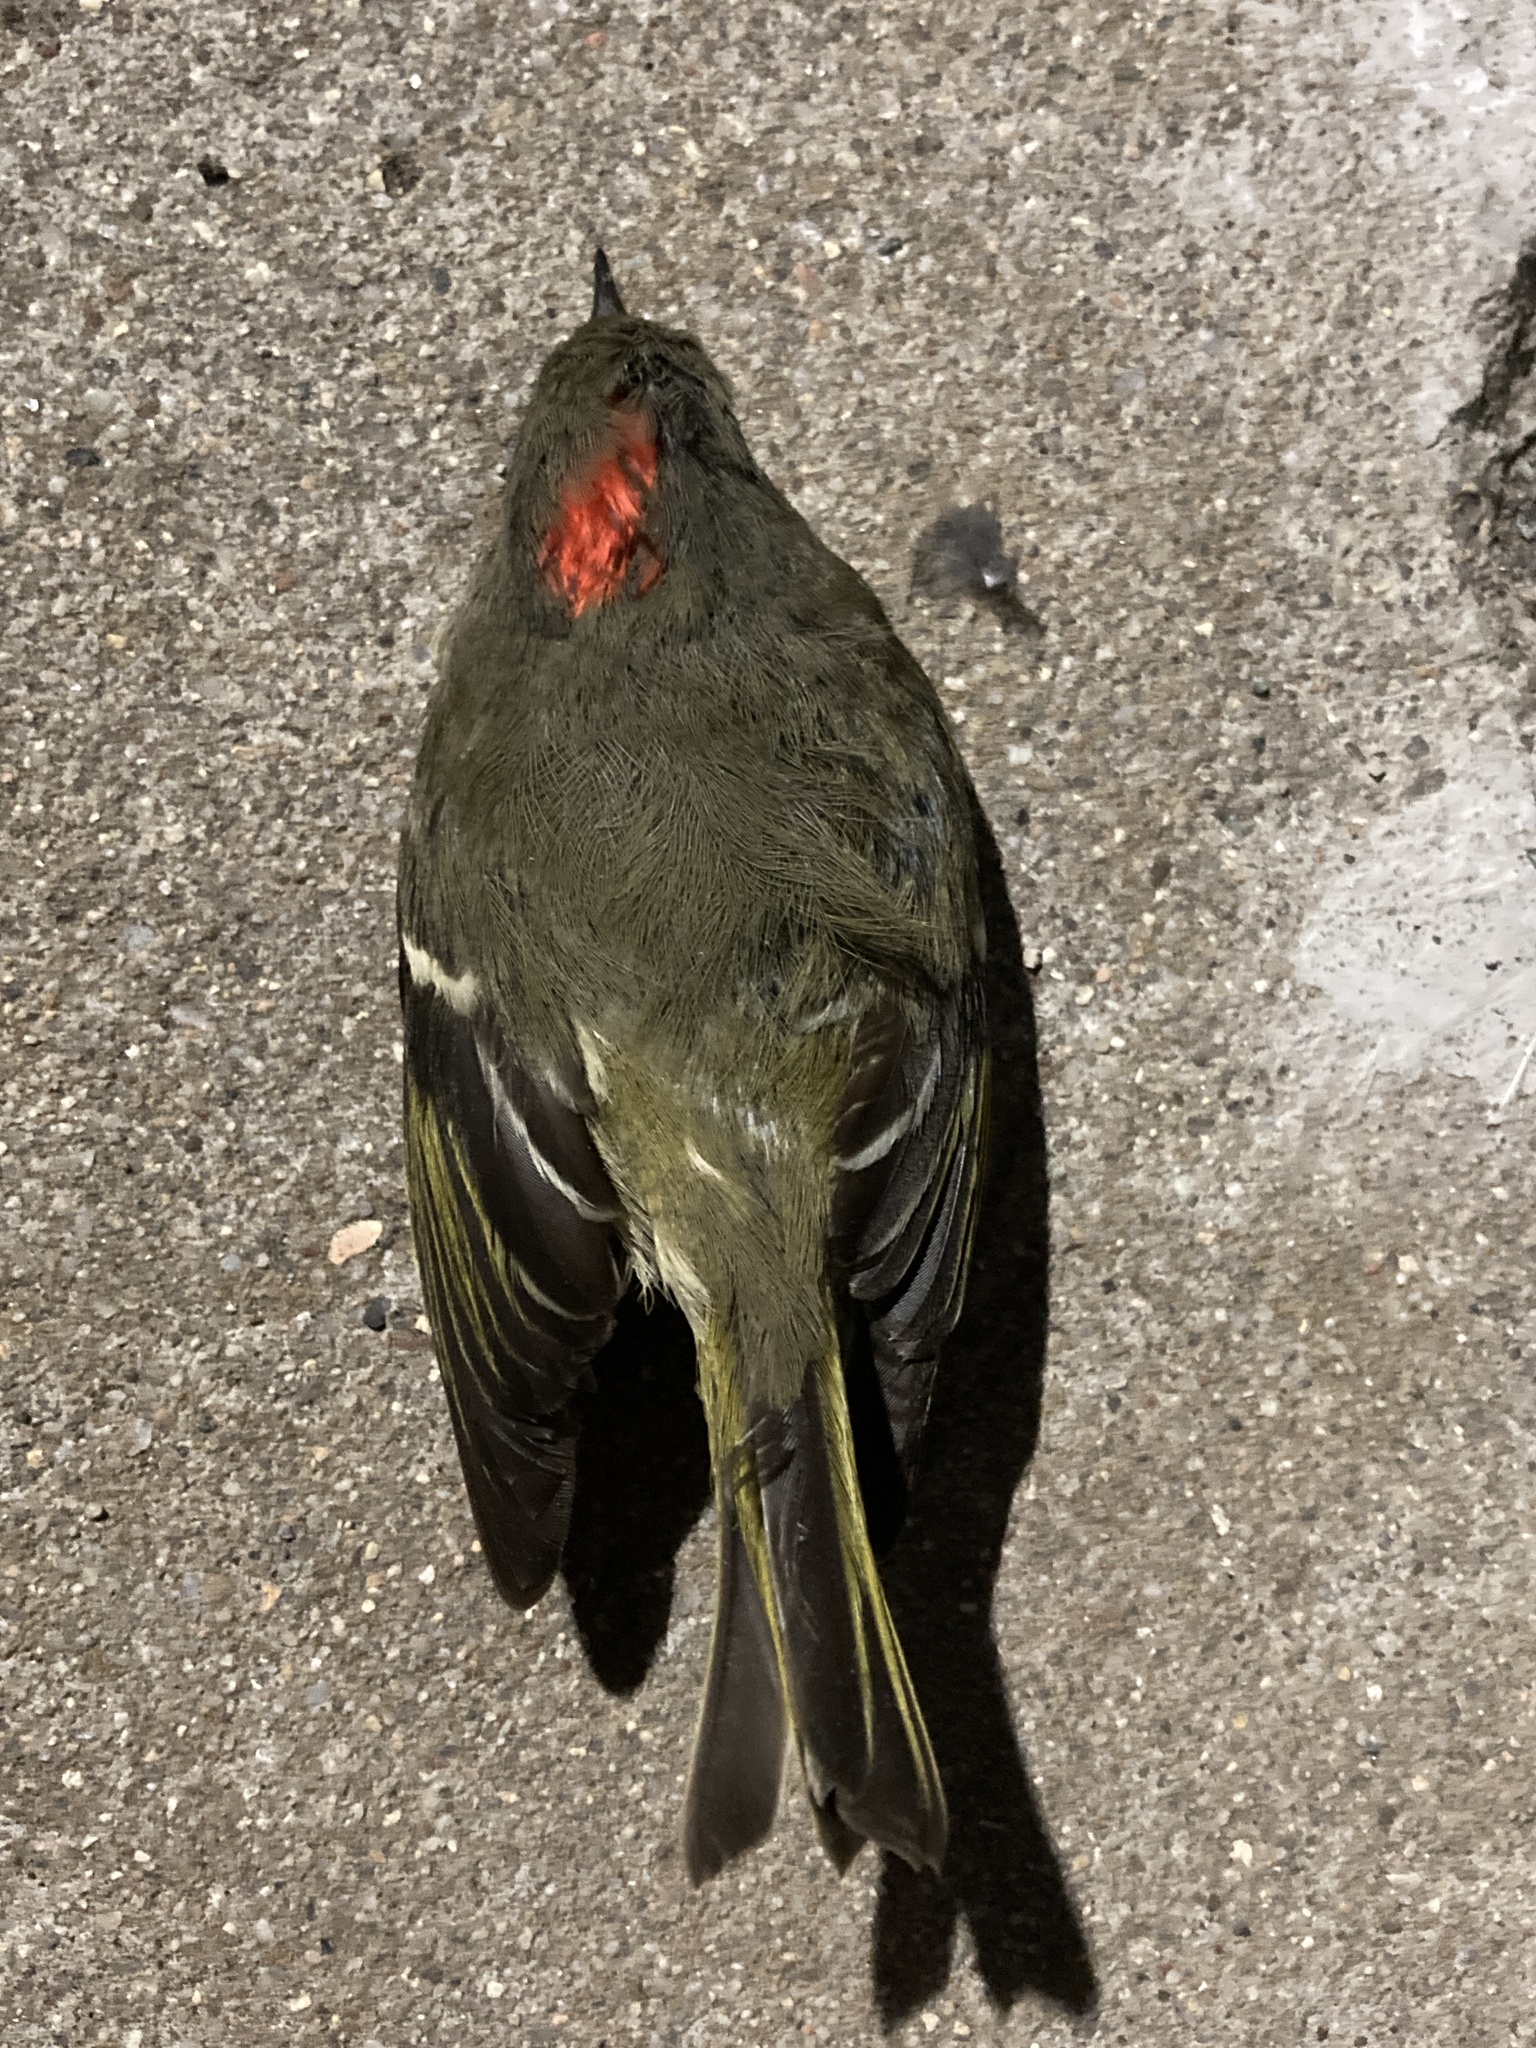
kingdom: Animalia
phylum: Chordata
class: Aves
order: Passeriformes
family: Regulidae
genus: Regulus
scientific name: Regulus calendula
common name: Ruby-crowned kinglet
